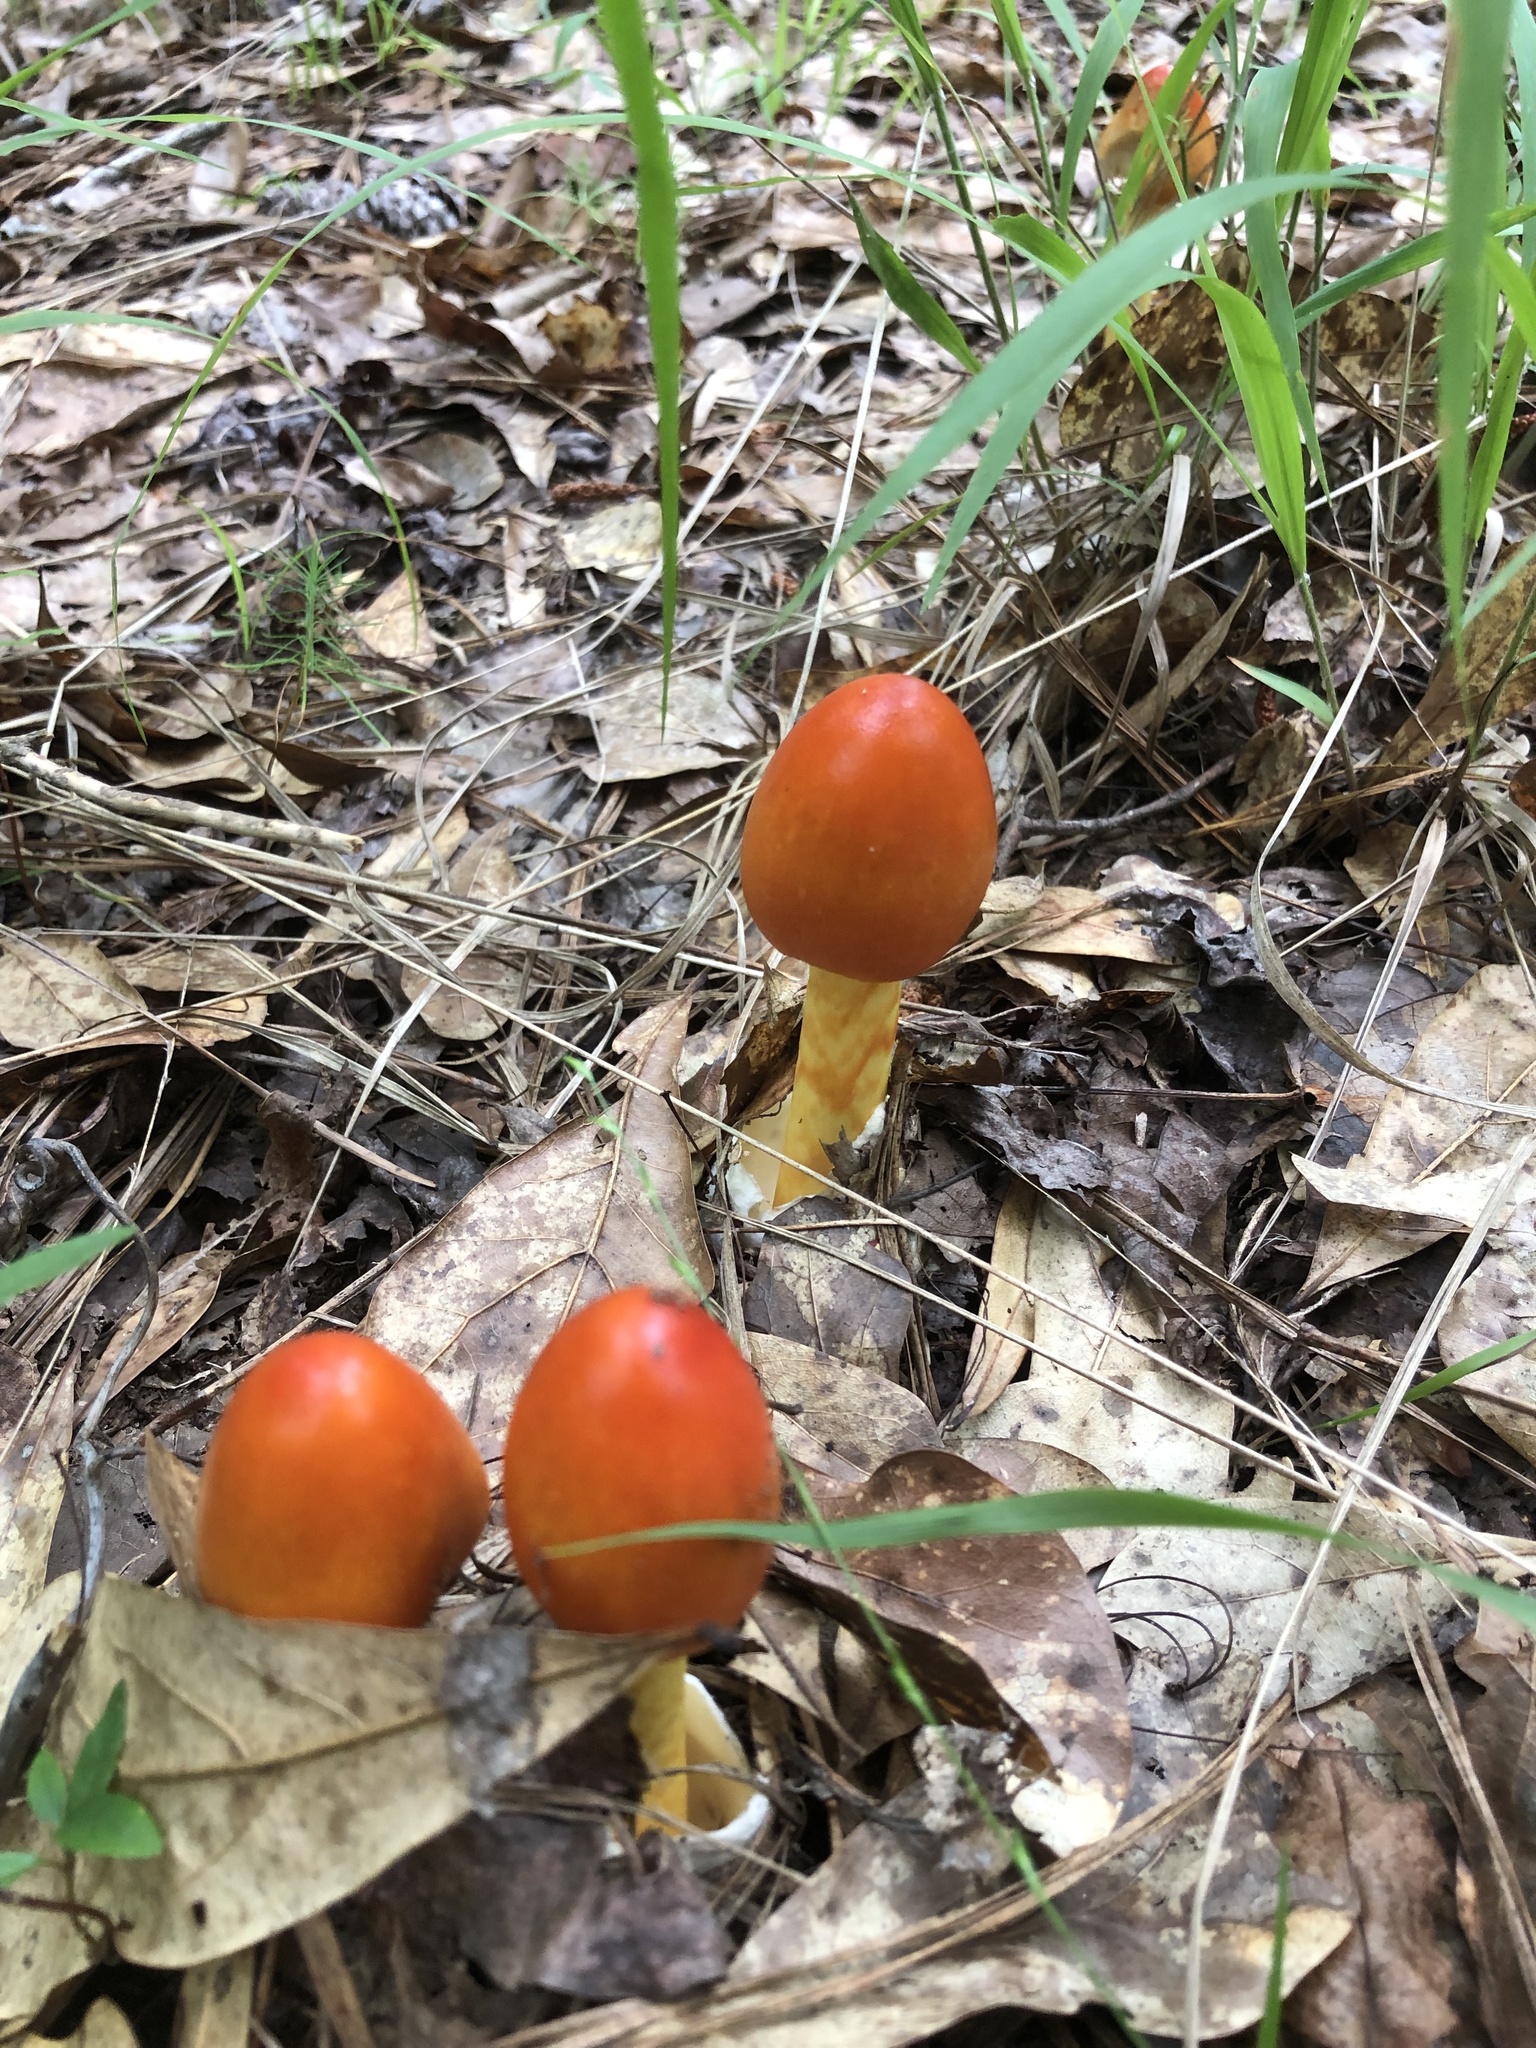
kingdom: Fungi
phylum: Basidiomycota
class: Agaricomycetes
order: Agaricales
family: Amanitaceae
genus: Amanita
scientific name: Amanita jacksonii
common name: Jackson's slender caesar
